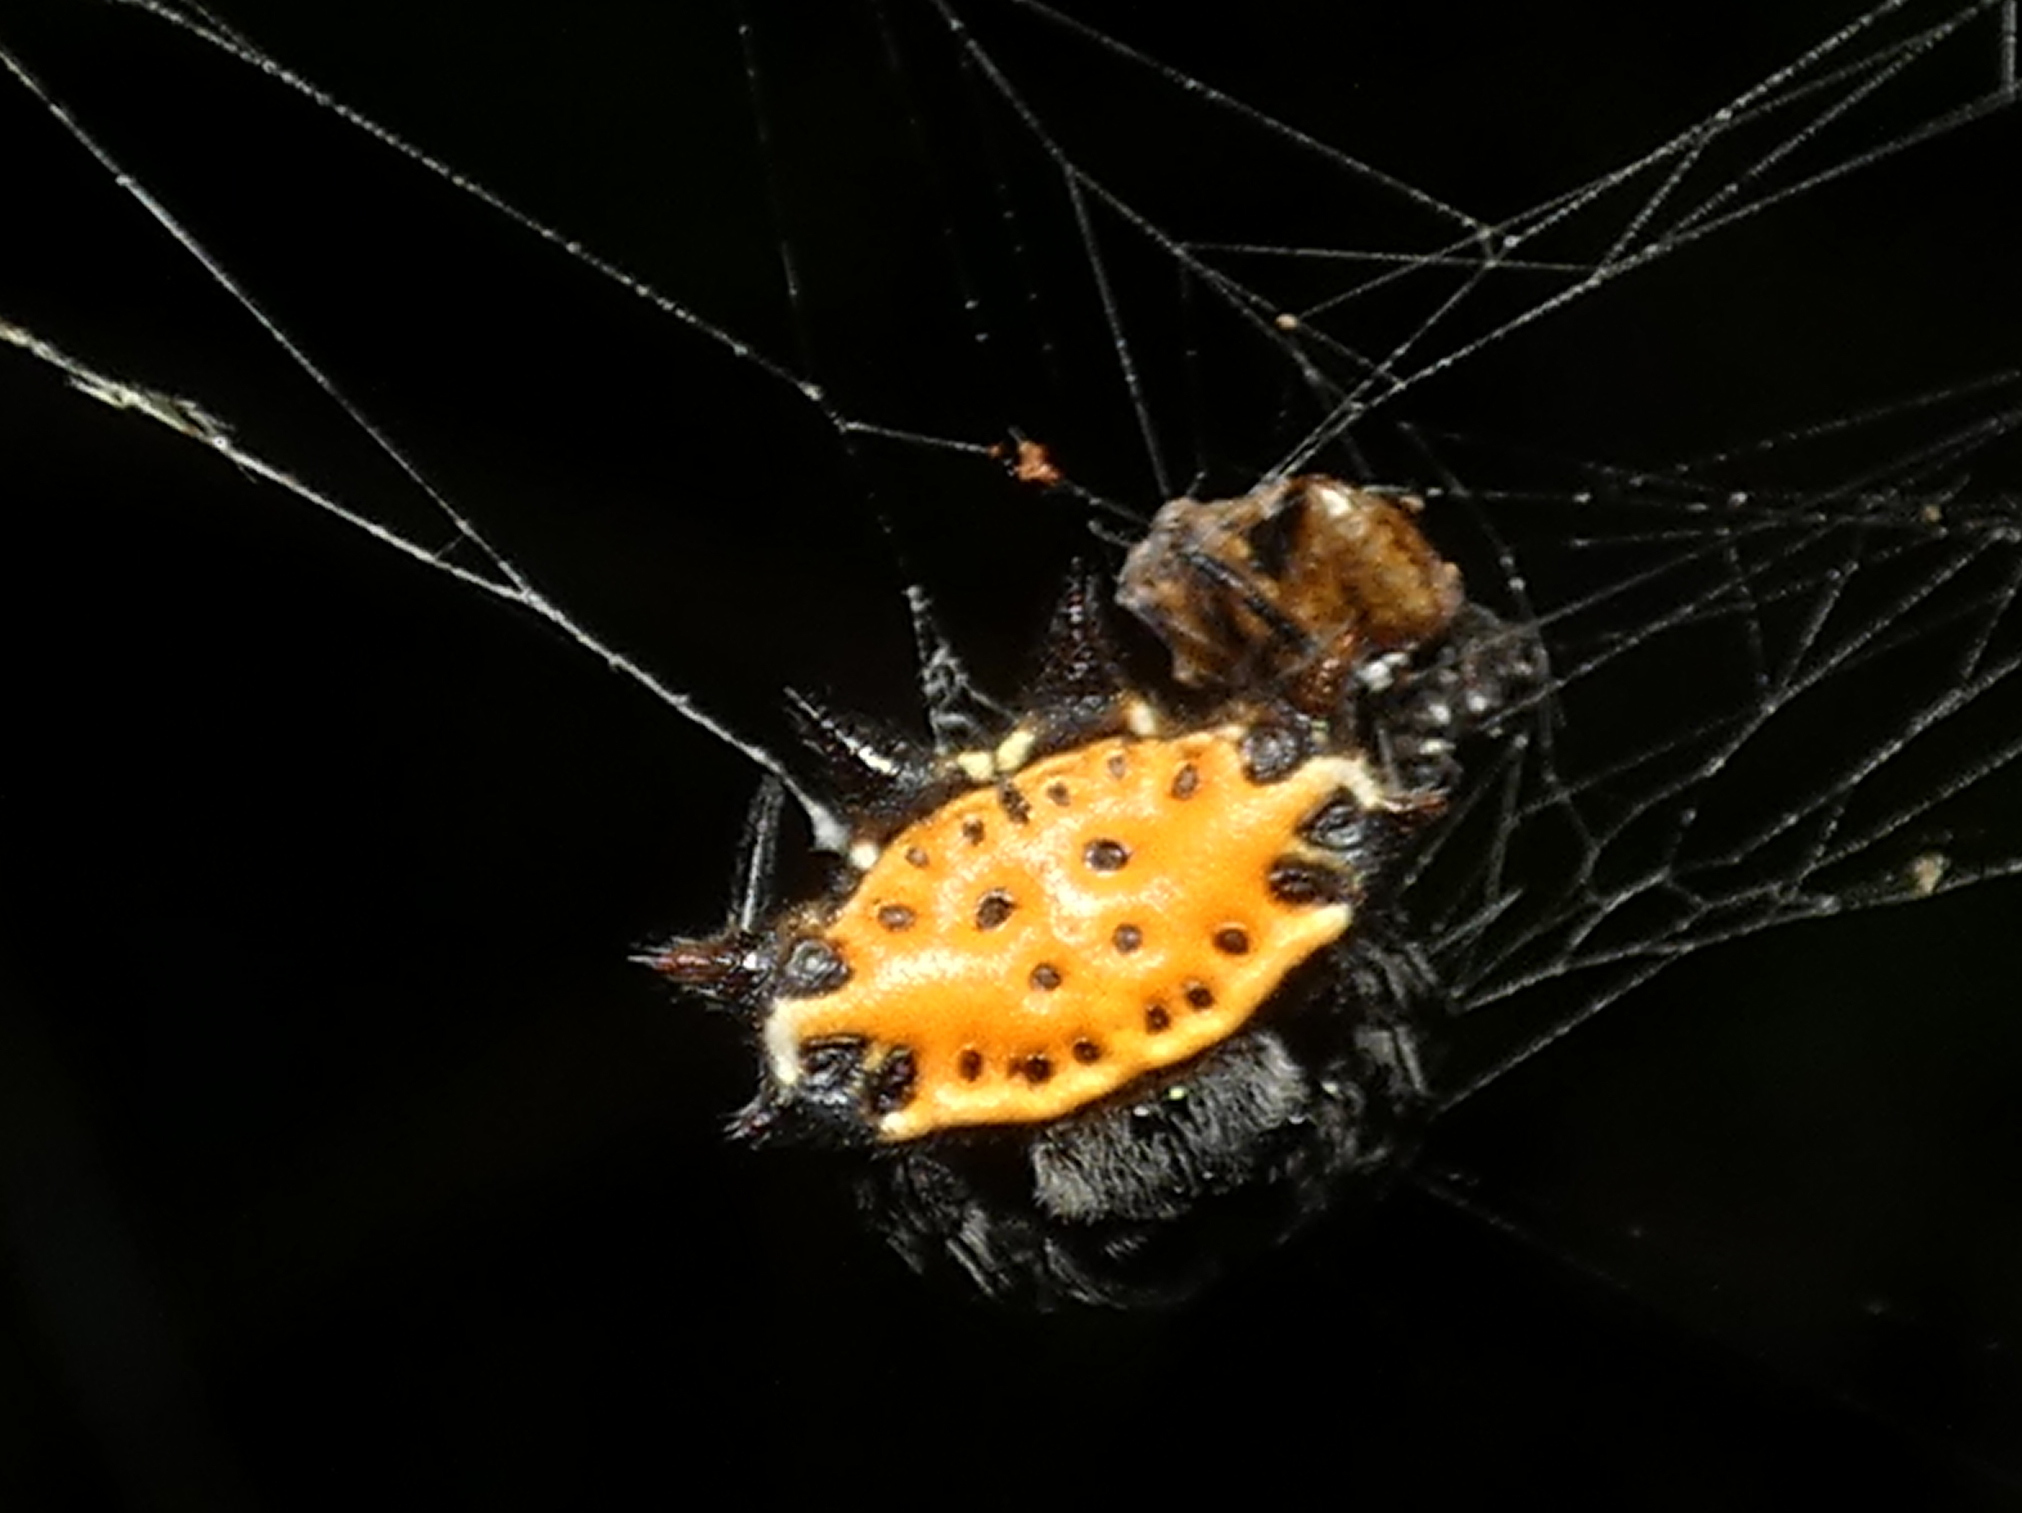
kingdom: Animalia
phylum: Arthropoda
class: Arachnida
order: Araneae
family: Araneidae
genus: Gasteracantha
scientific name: Gasteracantha cancriformis
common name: Orb weavers
